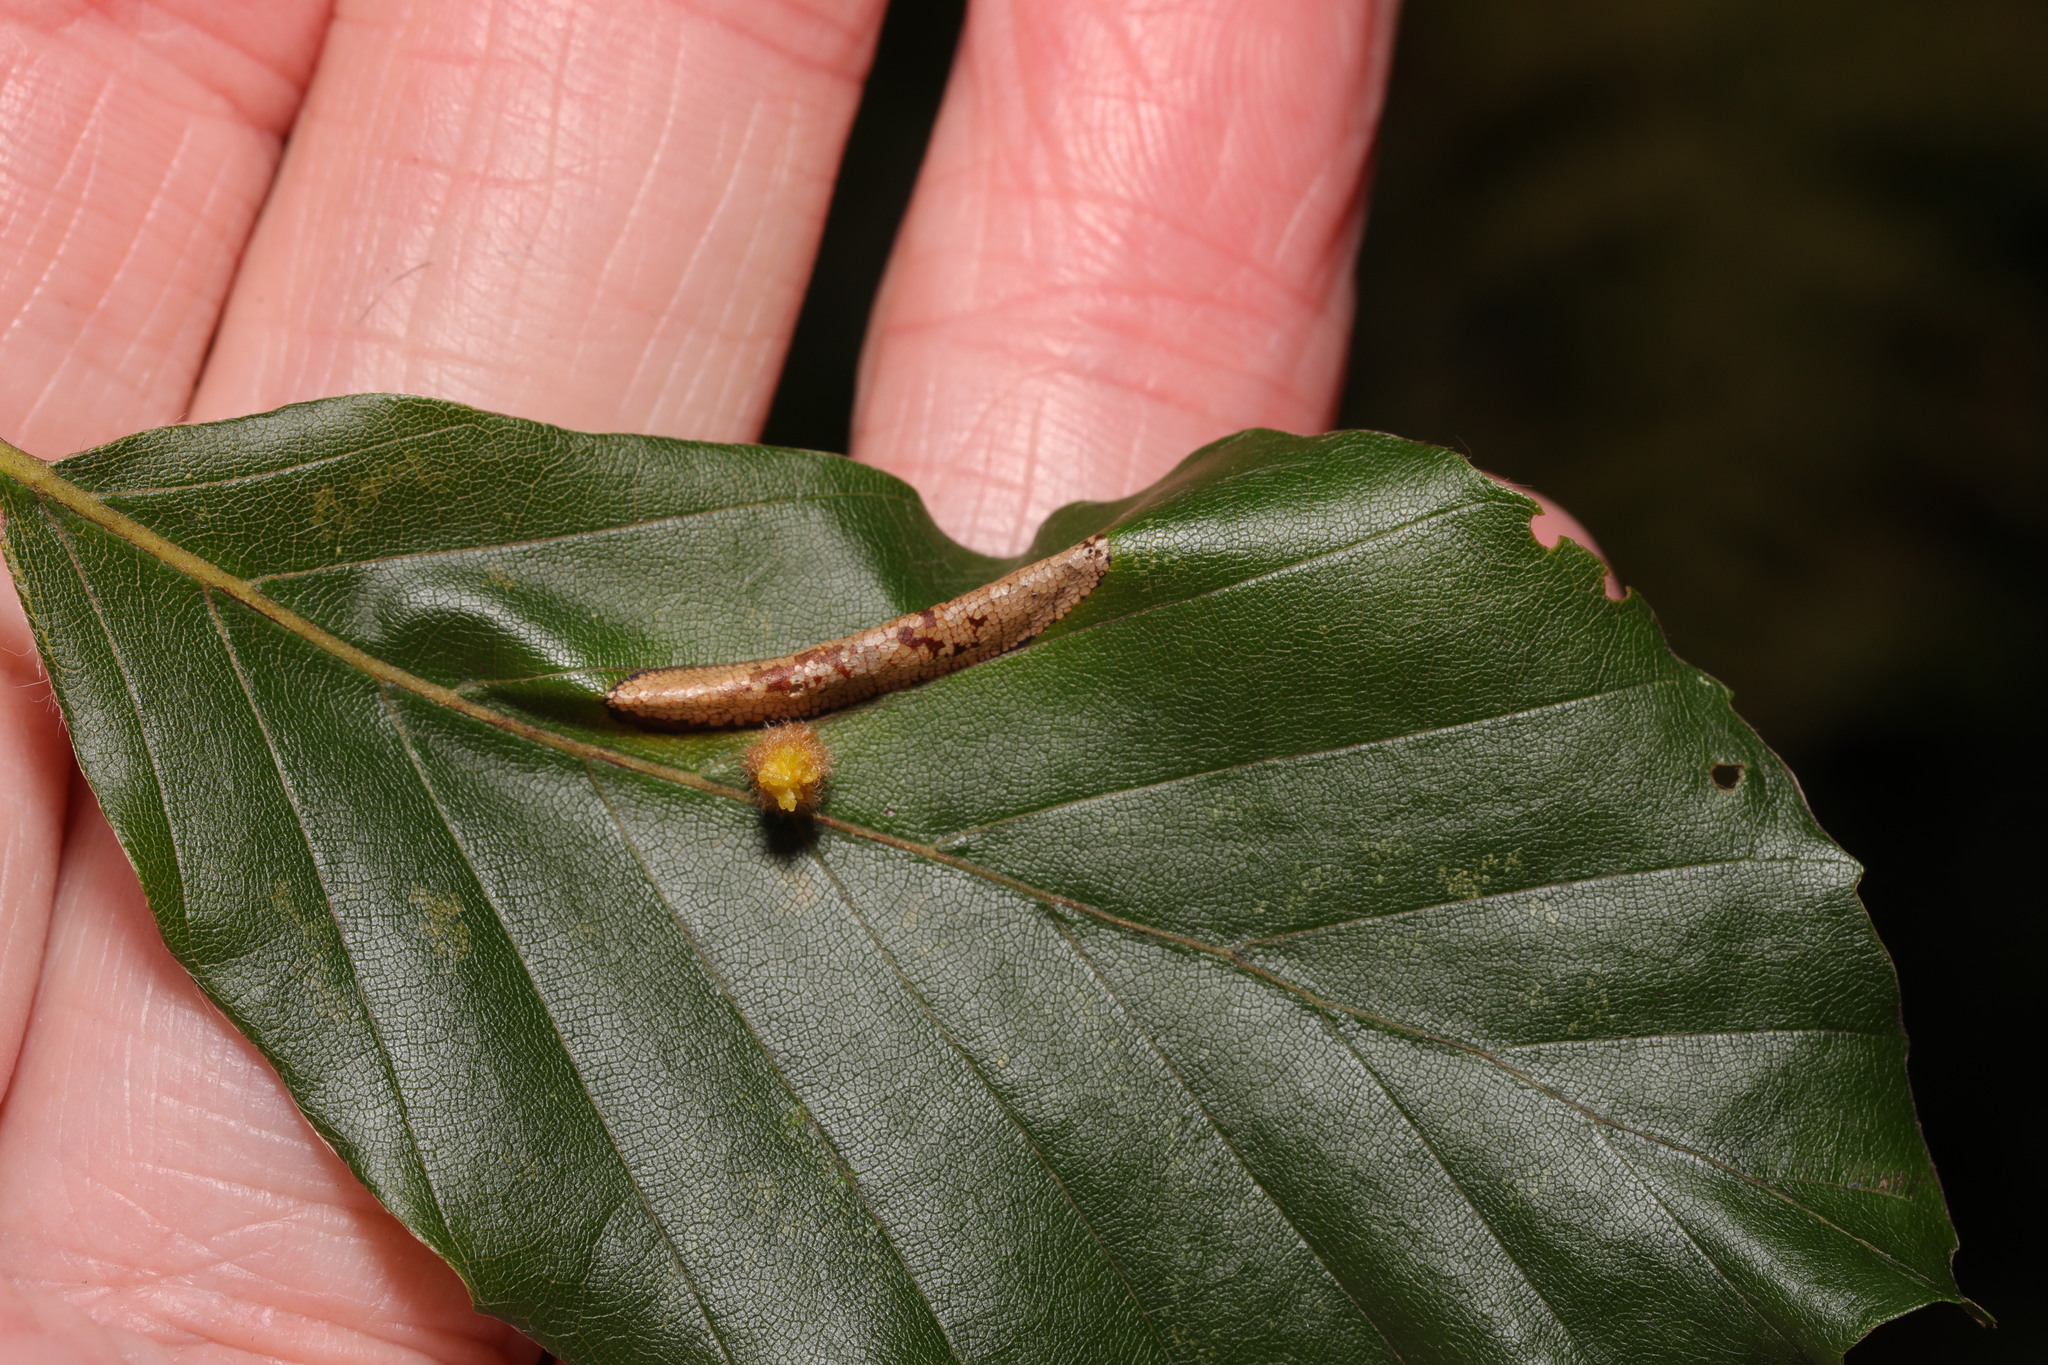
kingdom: Animalia
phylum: Arthropoda
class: Insecta
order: Lepidoptera
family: Gracillariidae
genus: Phyllonorycter
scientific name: Phyllonorycter maestingella
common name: Beech midget
